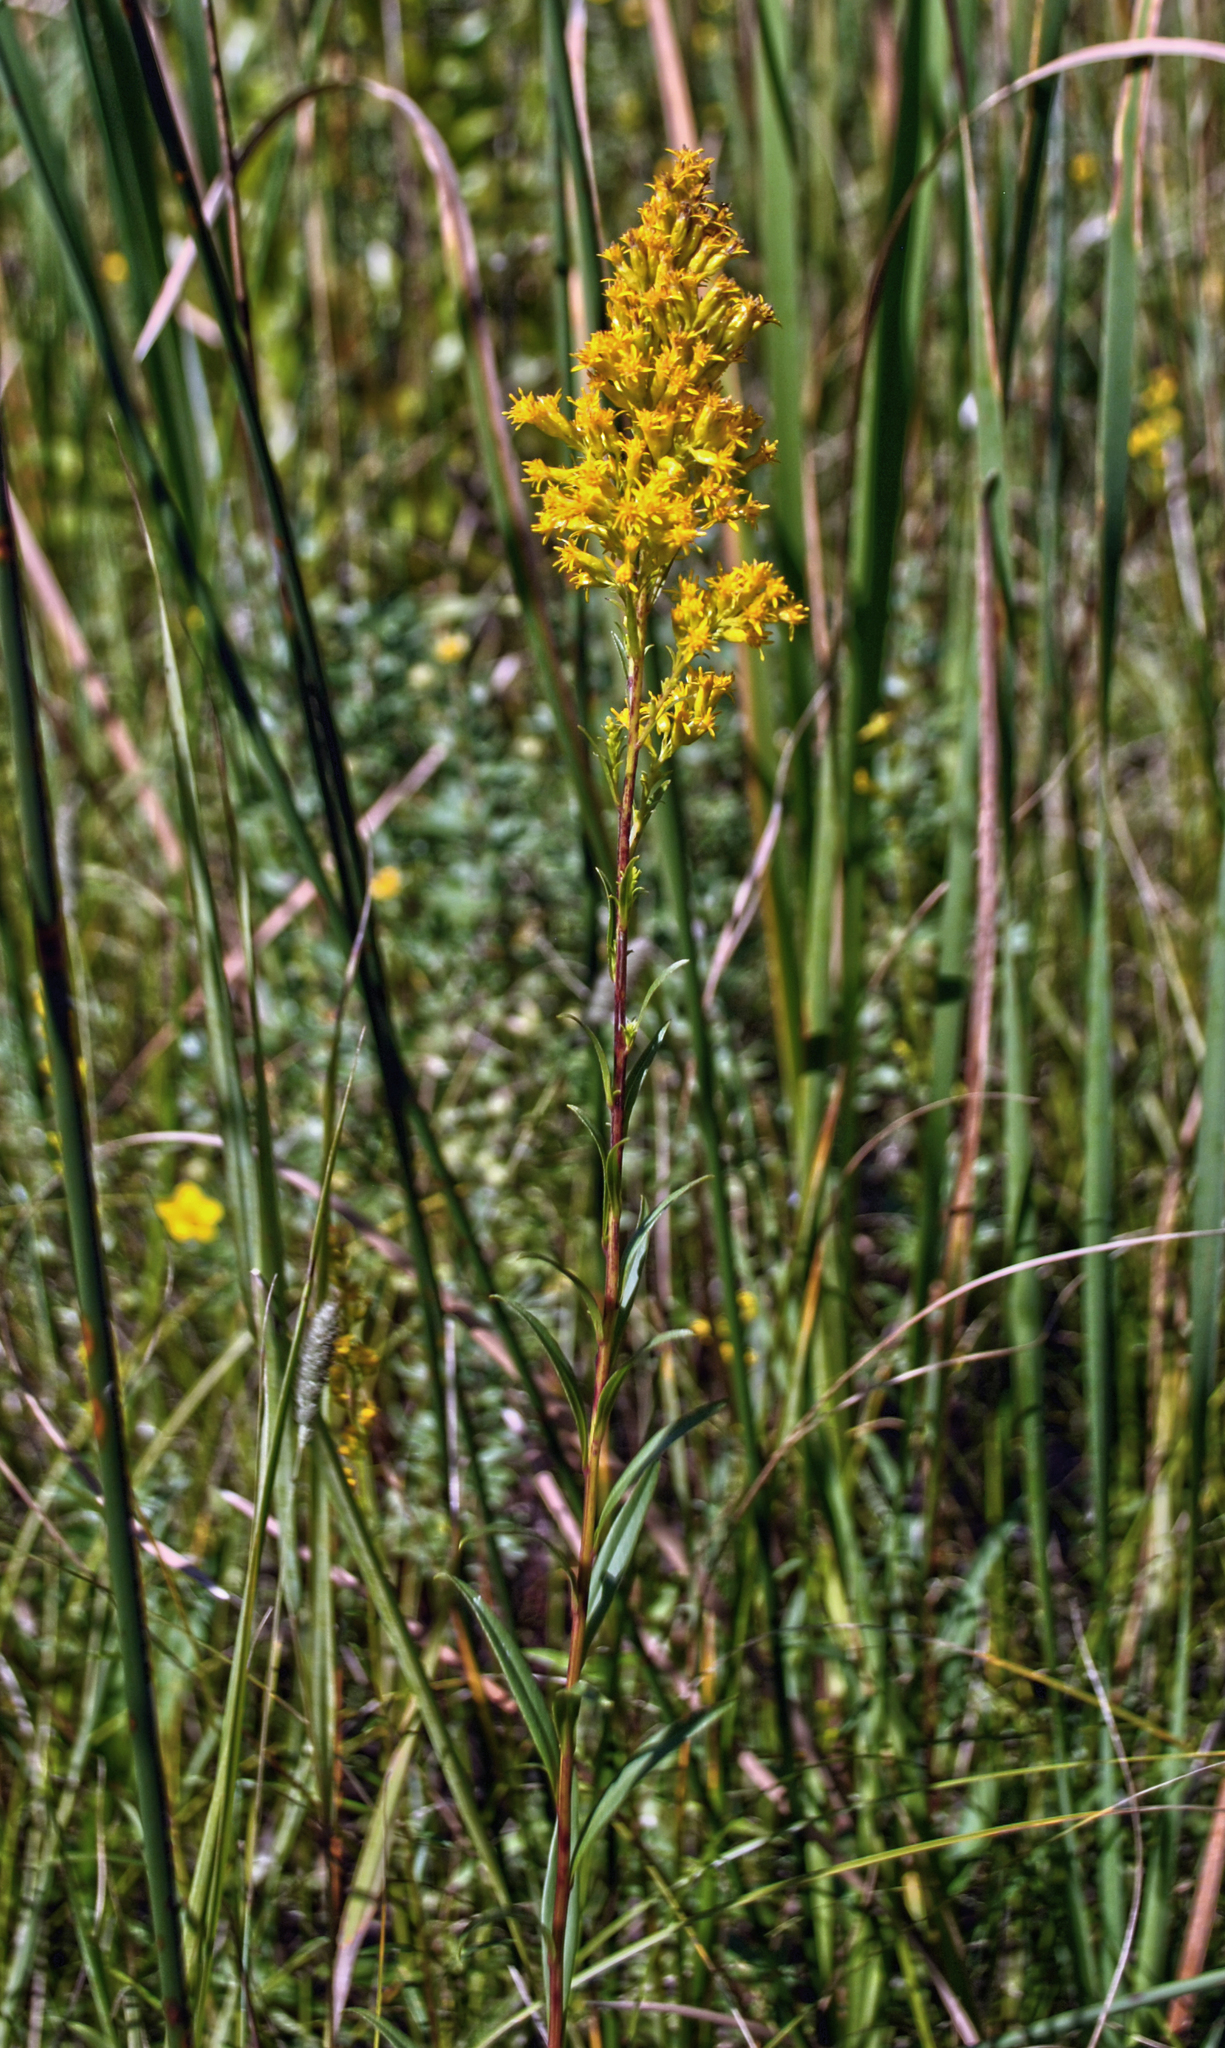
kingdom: Plantae
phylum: Tracheophyta
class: Magnoliopsida
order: Asterales
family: Asteraceae
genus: Solidago
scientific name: Solidago uliginosa
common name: Bog goldenrod
